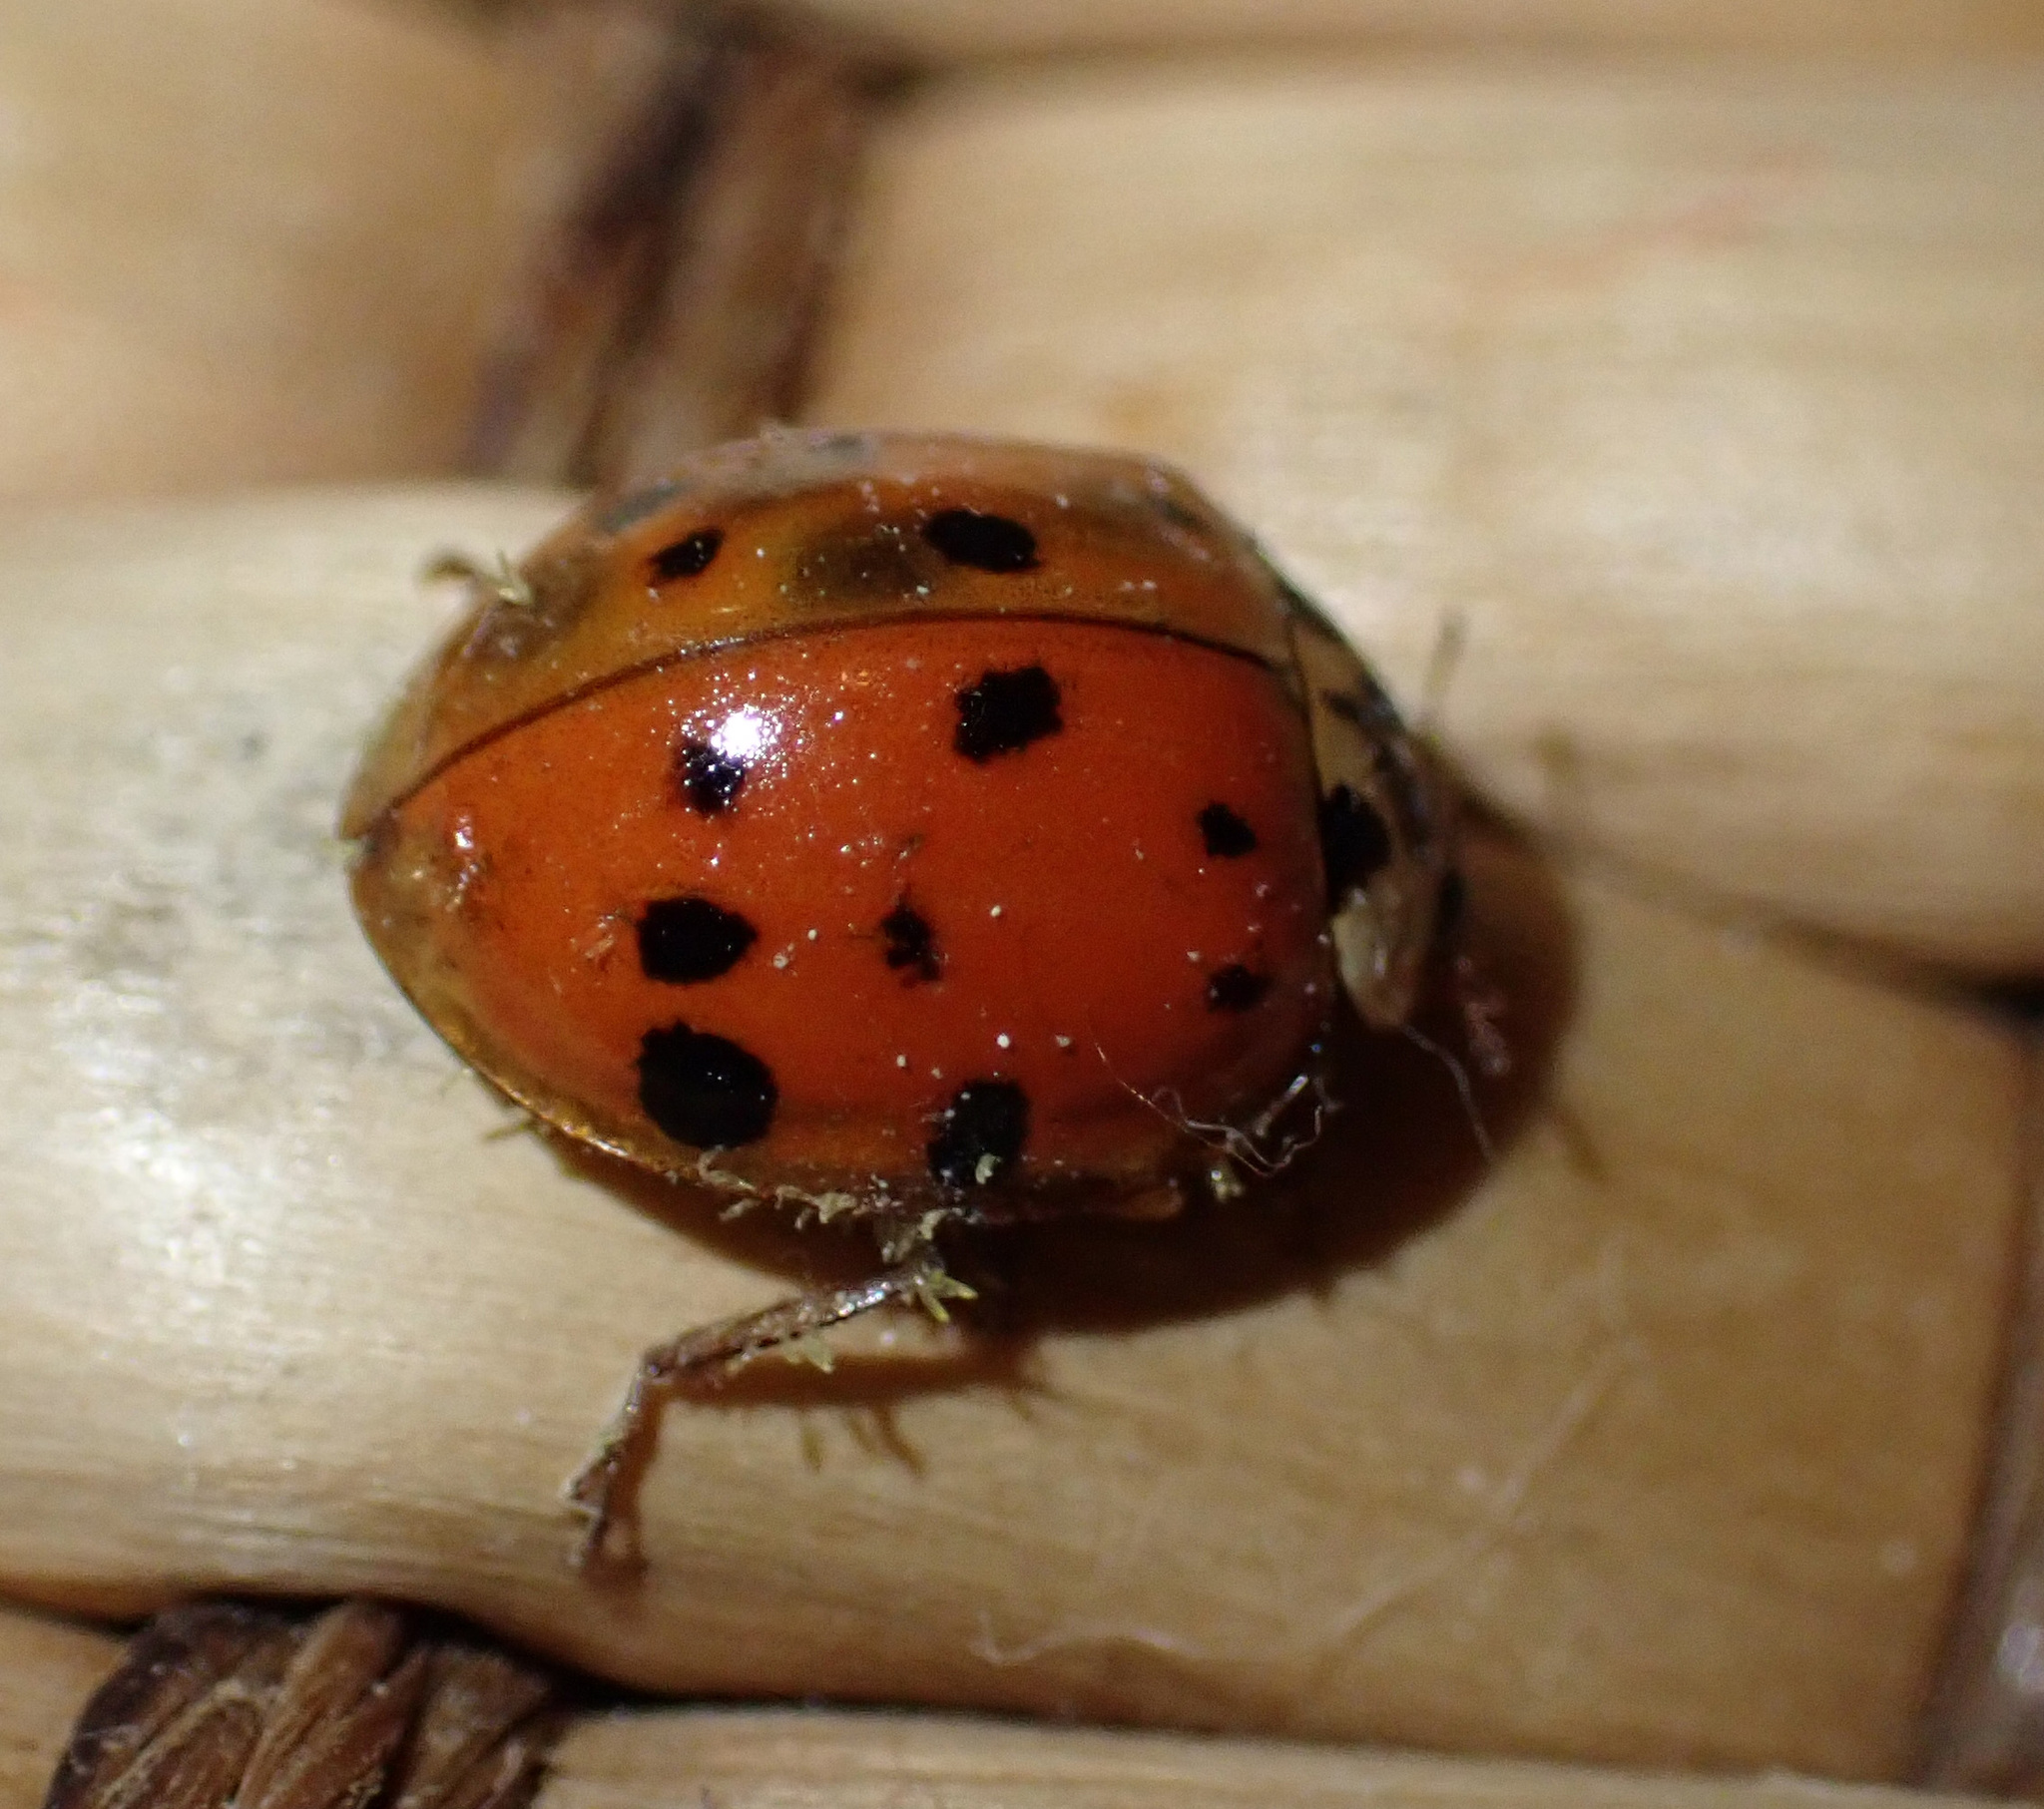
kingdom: Fungi
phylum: Ascomycota
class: Laboulbeniomycetes
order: Laboulbeniales
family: Laboulbeniaceae
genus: Hesperomyces
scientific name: Hesperomyces harmoniae
